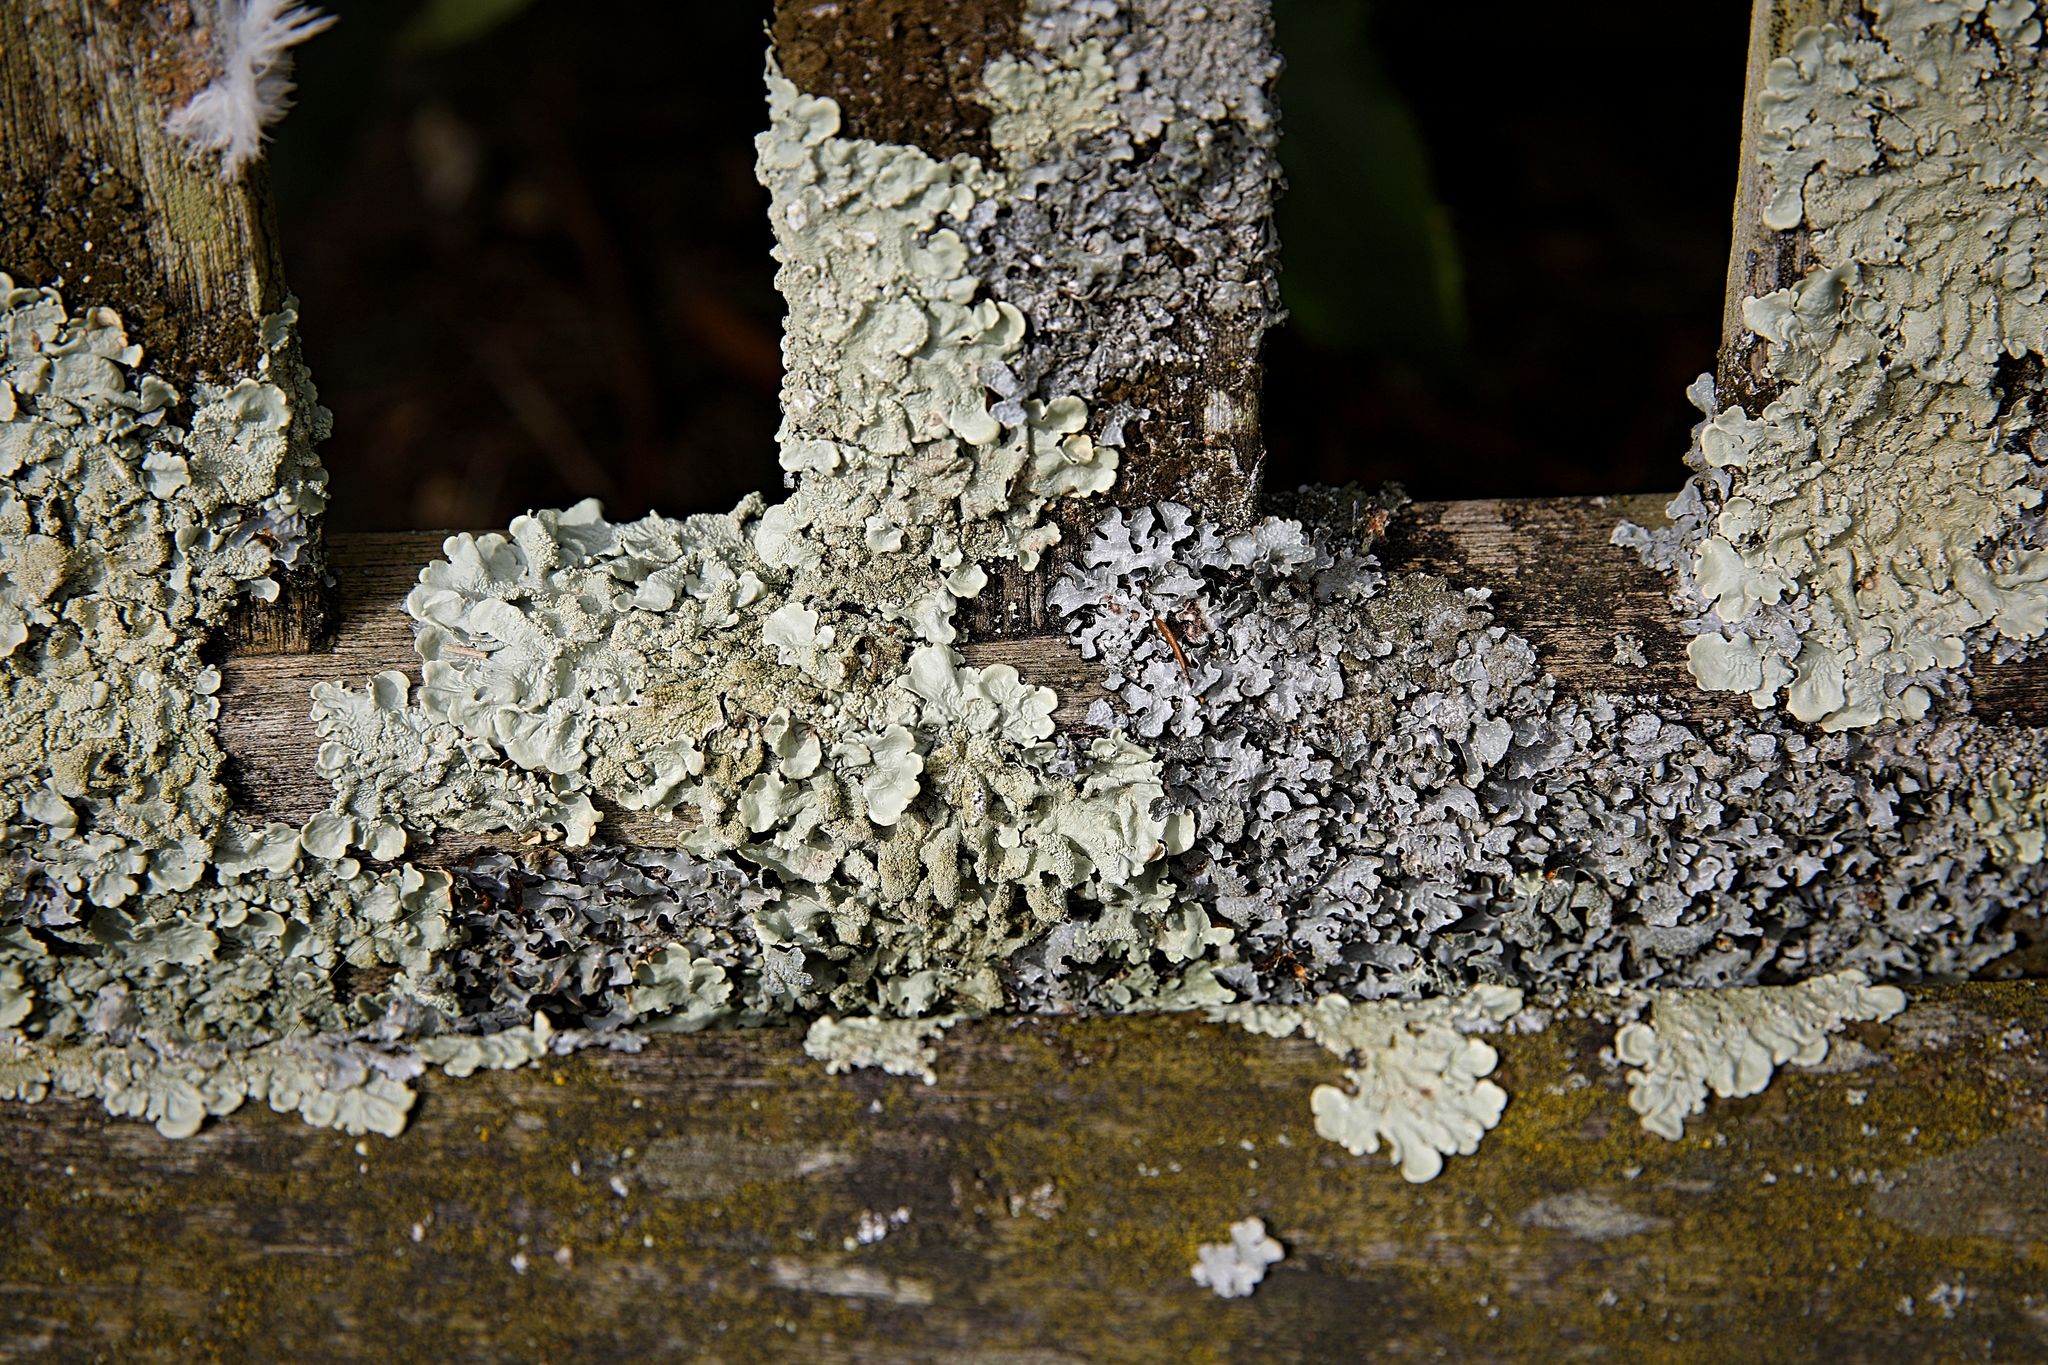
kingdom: Fungi
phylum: Ascomycota
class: Lecanoromycetes
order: Lecanorales
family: Parmeliaceae
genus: Flavoparmelia
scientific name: Flavoparmelia caperata
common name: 40-mile per hour lichen
